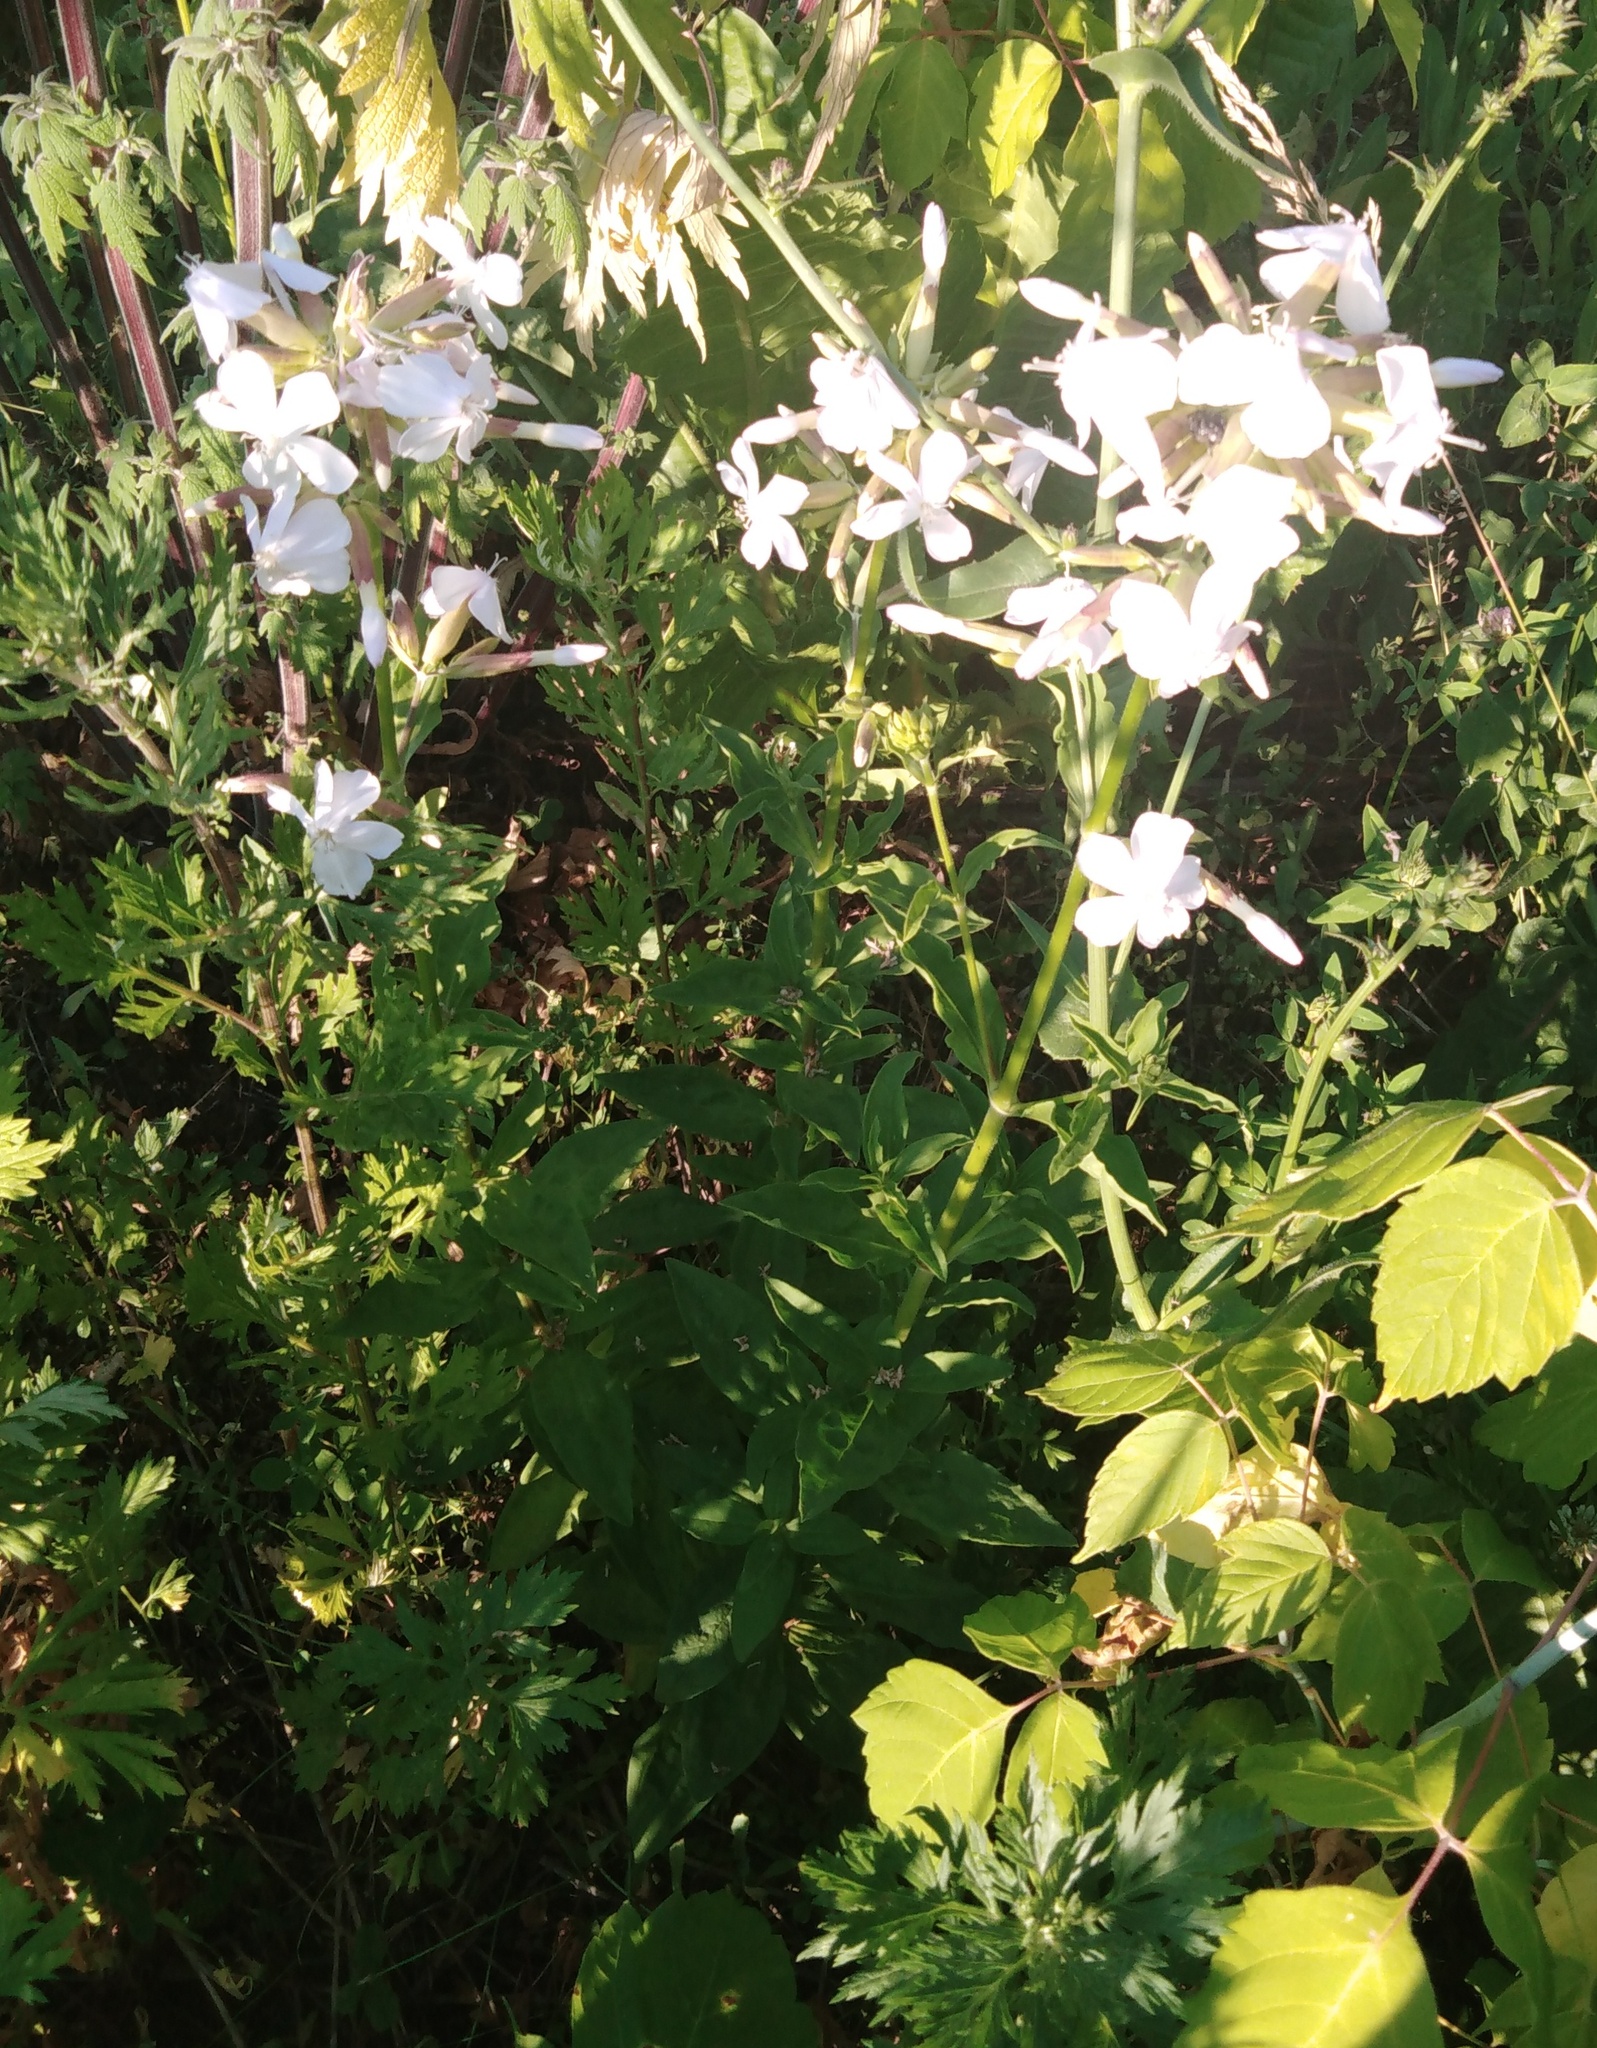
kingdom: Plantae
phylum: Tracheophyta
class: Magnoliopsida
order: Caryophyllales
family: Caryophyllaceae
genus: Saponaria
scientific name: Saponaria officinalis
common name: Soapwort
